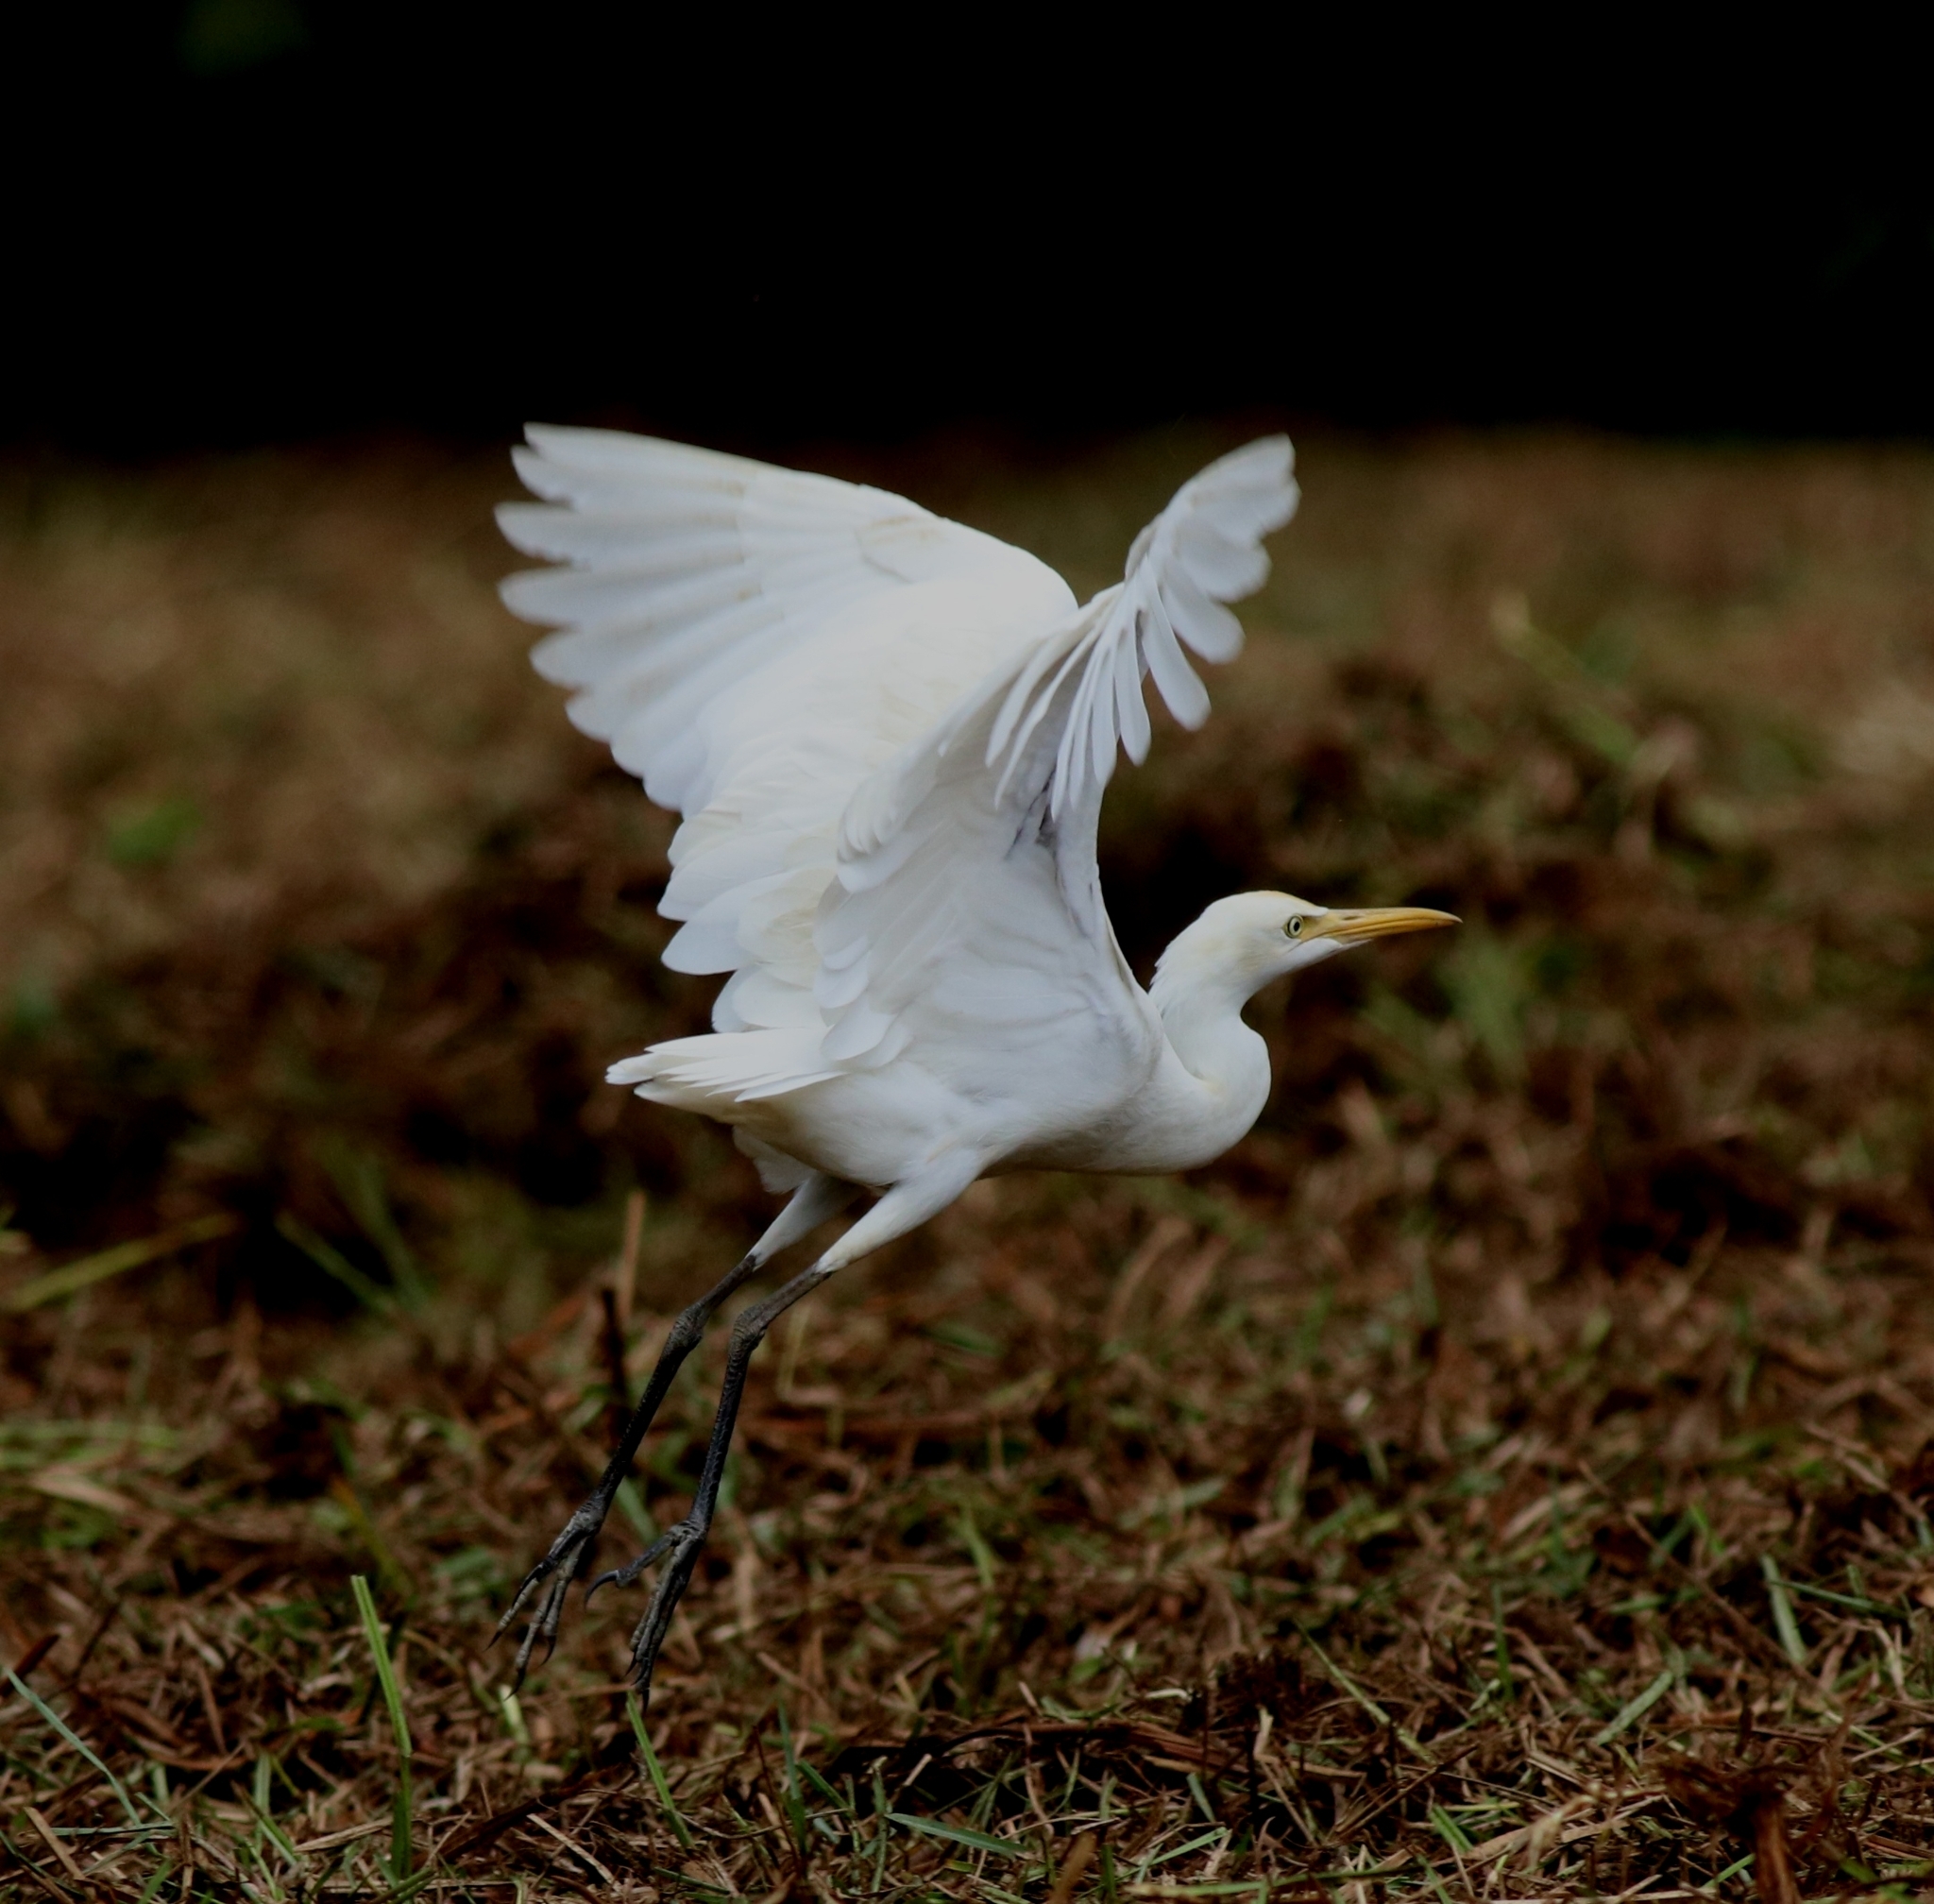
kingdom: Animalia
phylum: Chordata
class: Aves
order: Pelecaniformes
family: Ardeidae
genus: Bubulcus
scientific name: Bubulcus coromandus
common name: Eastern cattle egret
